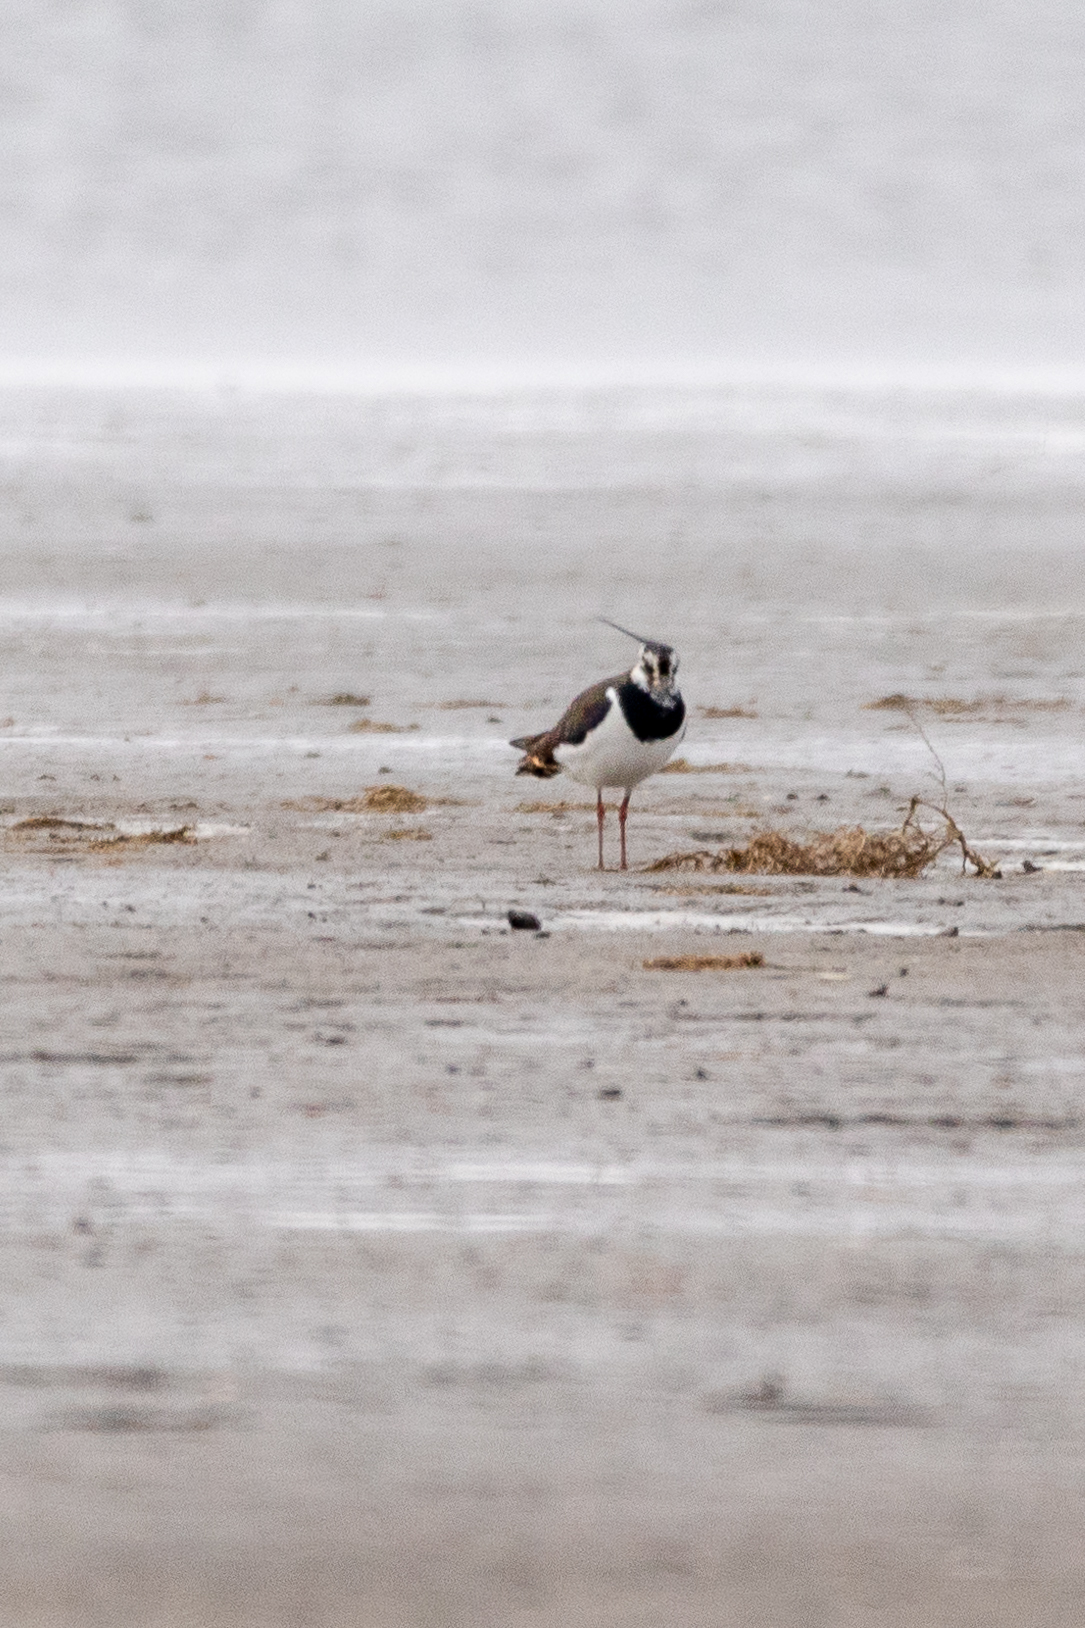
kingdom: Animalia
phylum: Chordata
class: Aves
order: Charadriiformes
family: Charadriidae
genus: Vanellus
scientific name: Vanellus vanellus
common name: Northern lapwing
